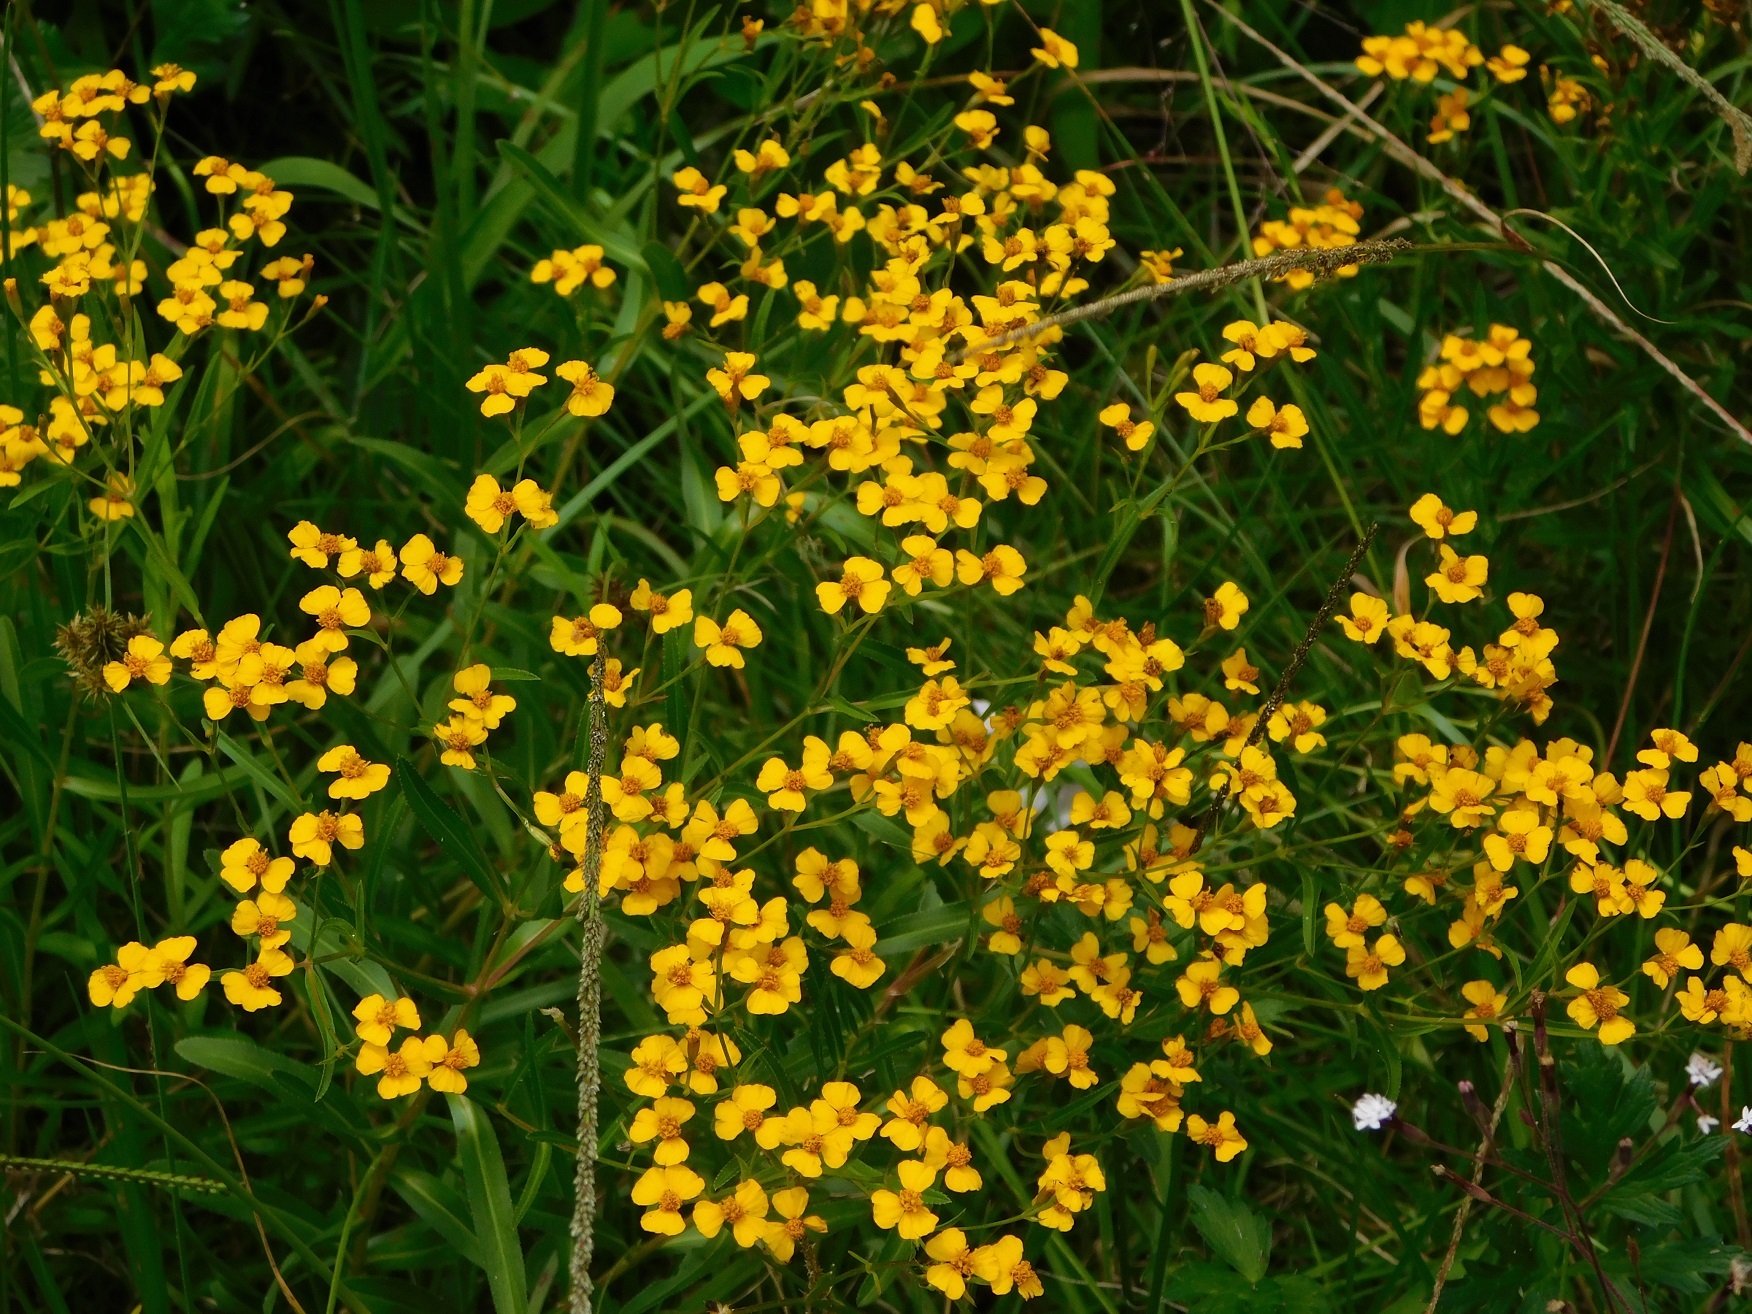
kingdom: Plantae
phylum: Tracheophyta
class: Magnoliopsida
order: Asterales
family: Asteraceae
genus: Tagetes
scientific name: Tagetes lucida
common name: Sweetscented marigold
